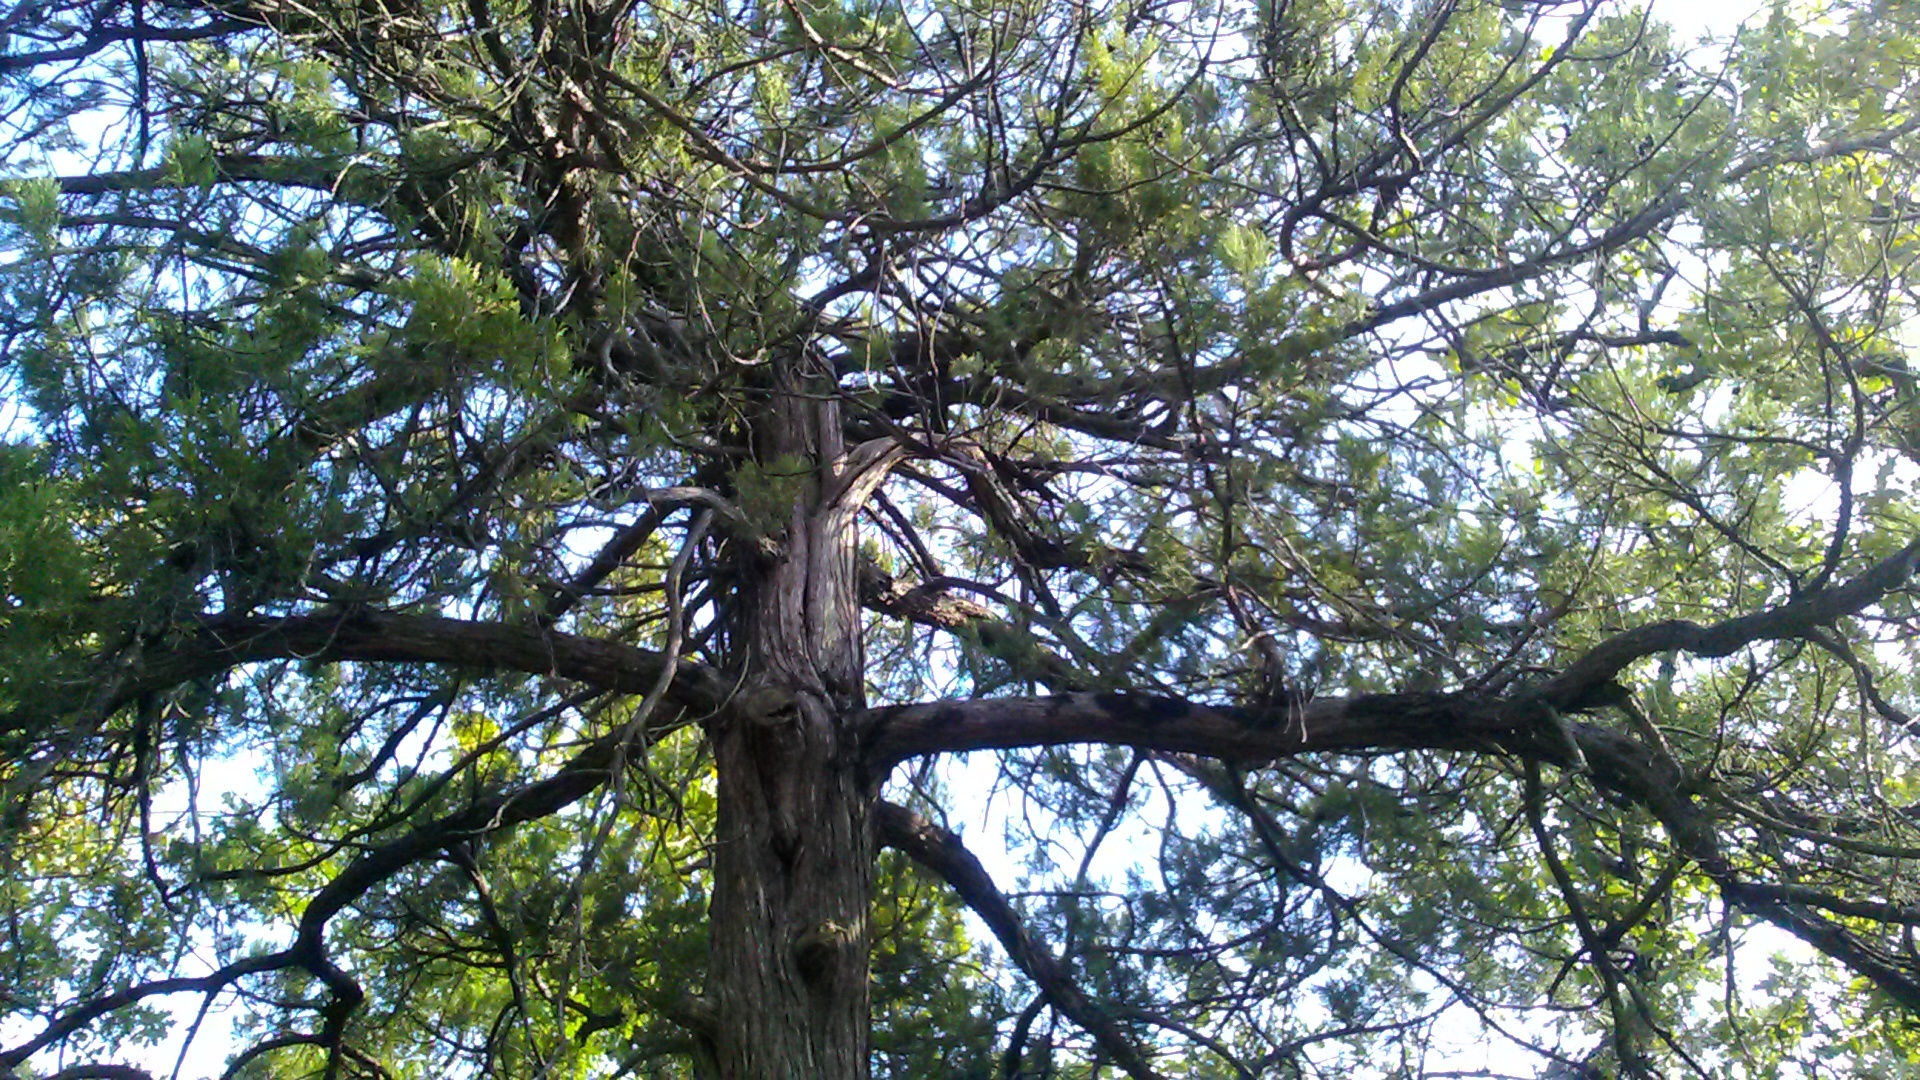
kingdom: Plantae
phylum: Tracheophyta
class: Pinopsida
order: Pinales
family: Cupressaceae
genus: Juniperus
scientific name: Juniperus excelsa
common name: Crimean juniper
